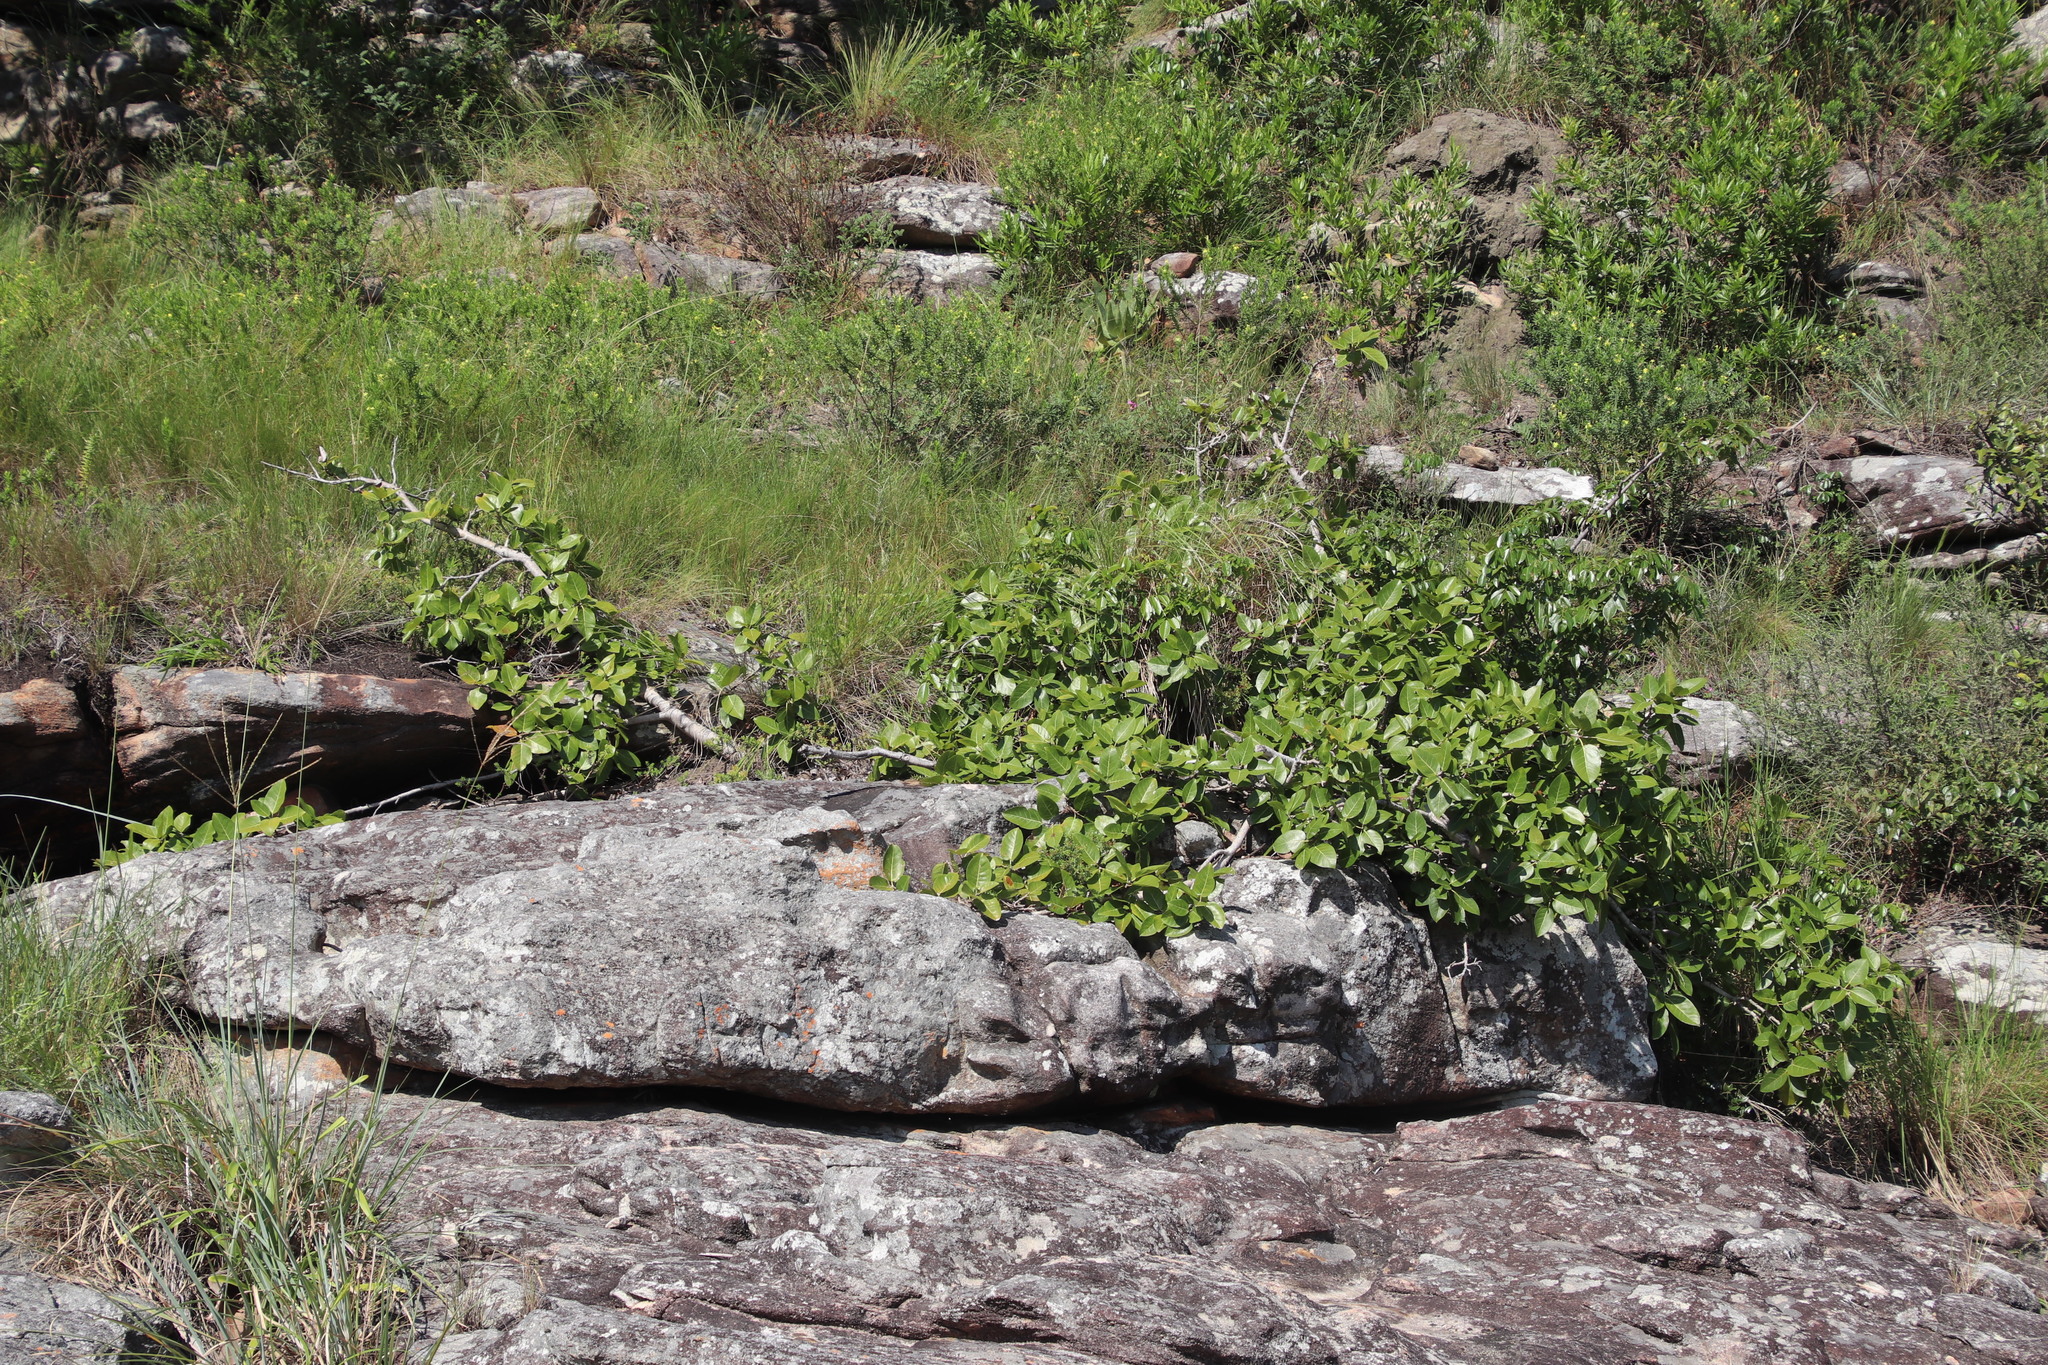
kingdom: Plantae
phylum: Tracheophyta
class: Magnoliopsida
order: Rosales
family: Moraceae
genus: Ficus
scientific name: Ficus ingens
